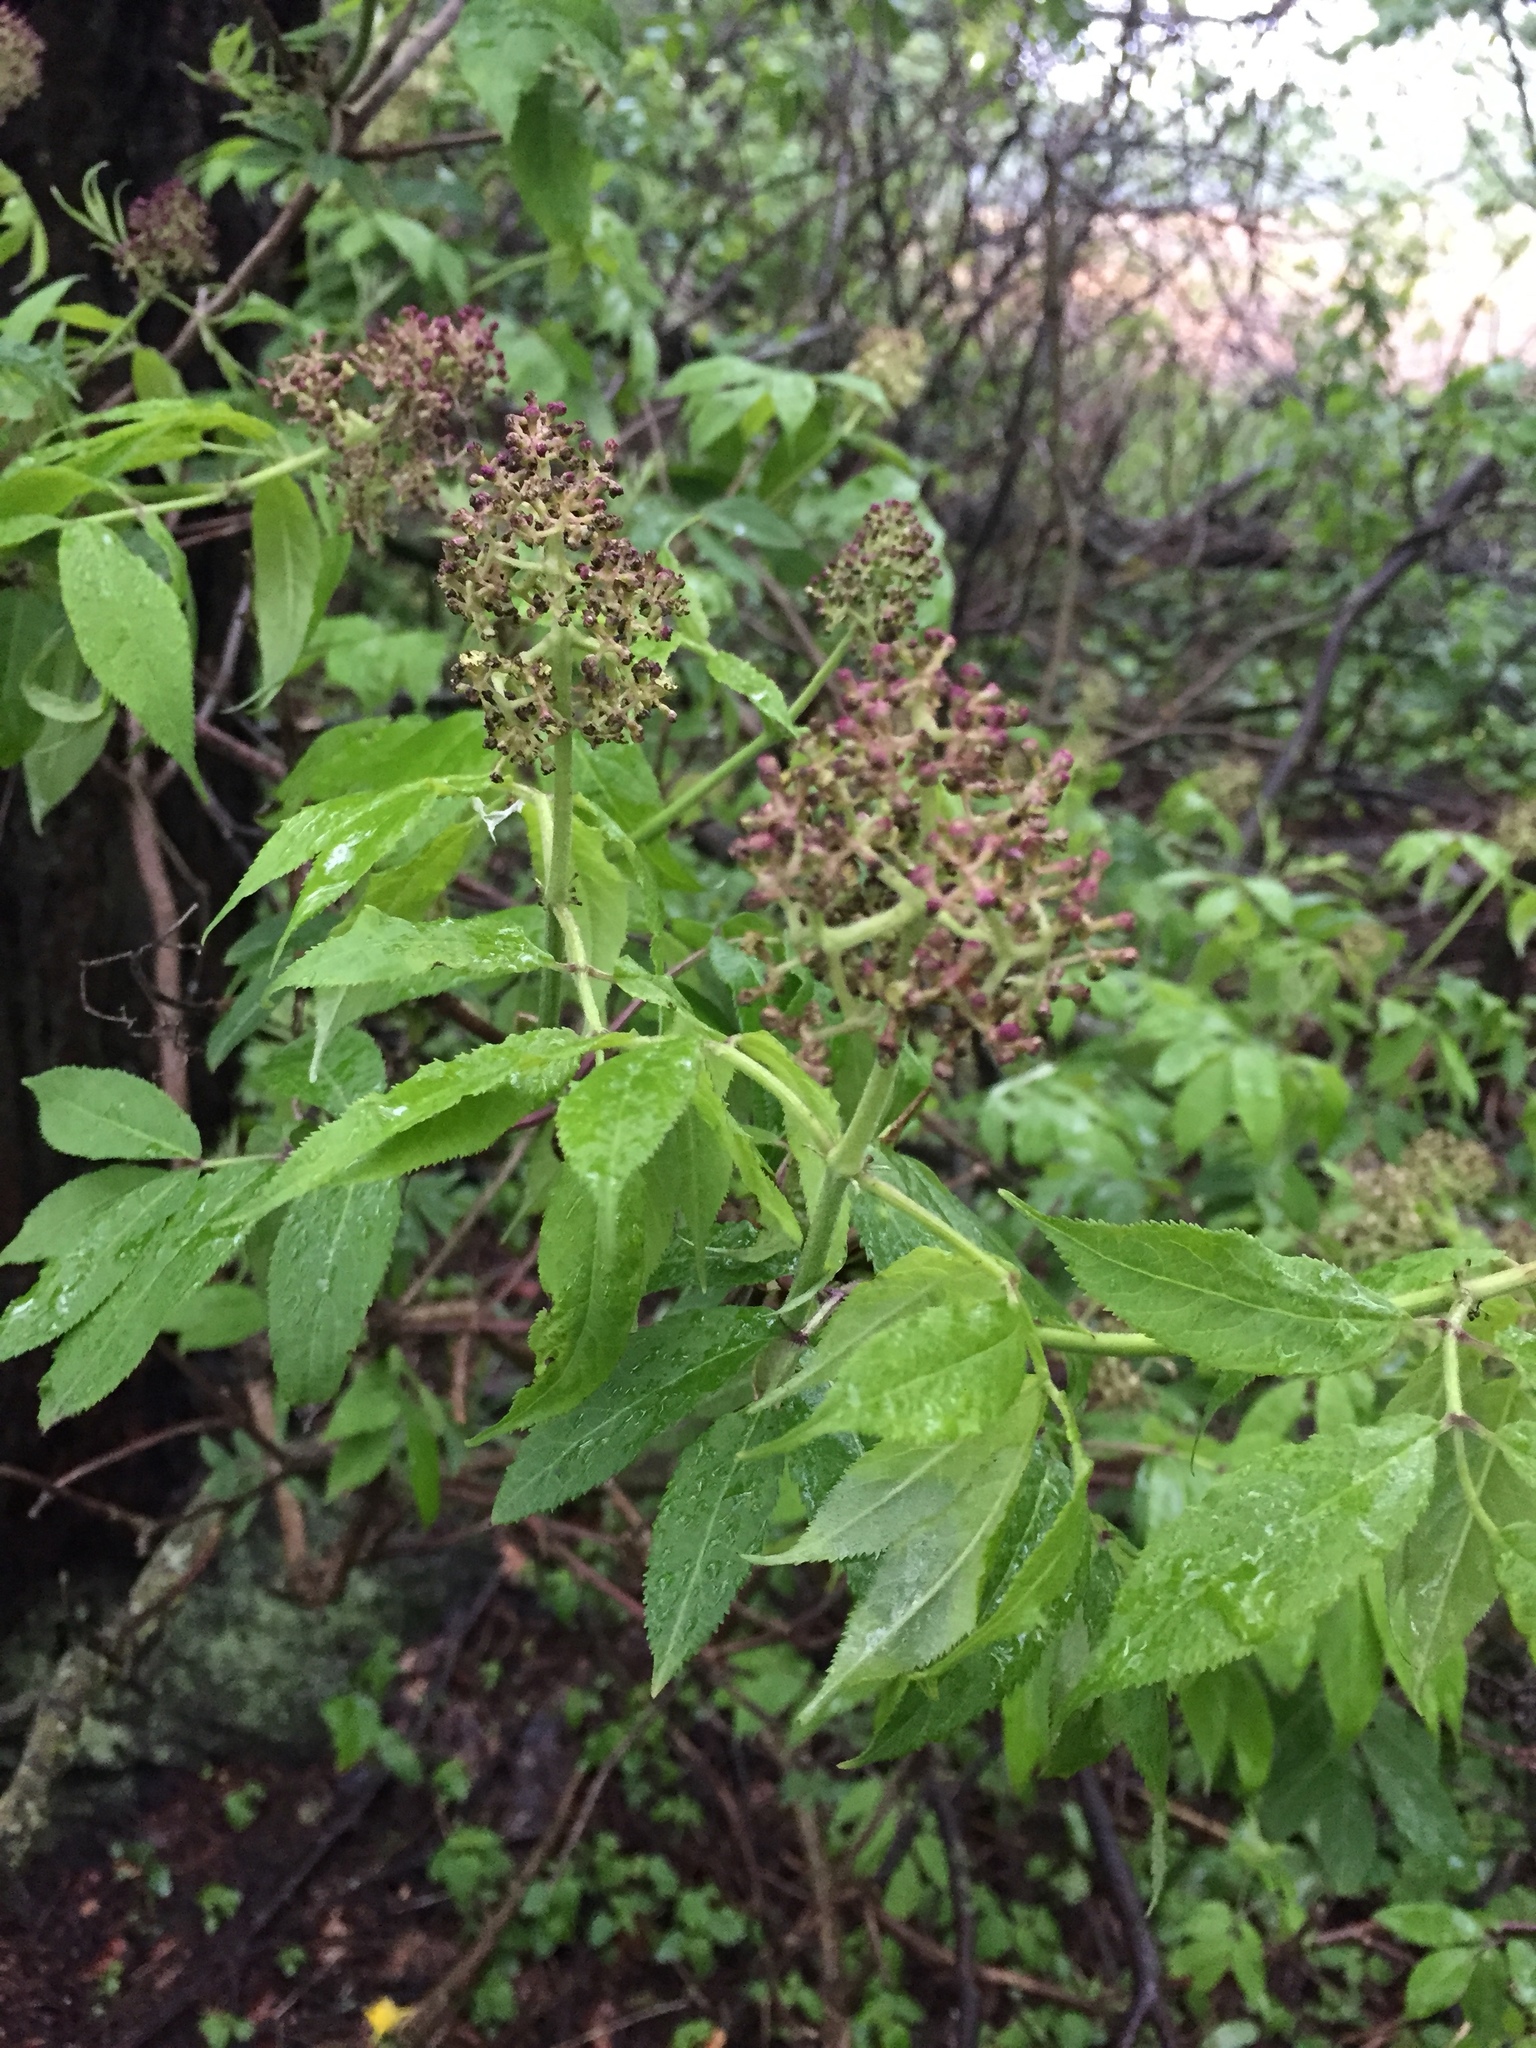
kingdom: Plantae
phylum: Tracheophyta
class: Magnoliopsida
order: Dipsacales
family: Viburnaceae
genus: Sambucus
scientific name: Sambucus racemosa
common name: Red-berried elder
